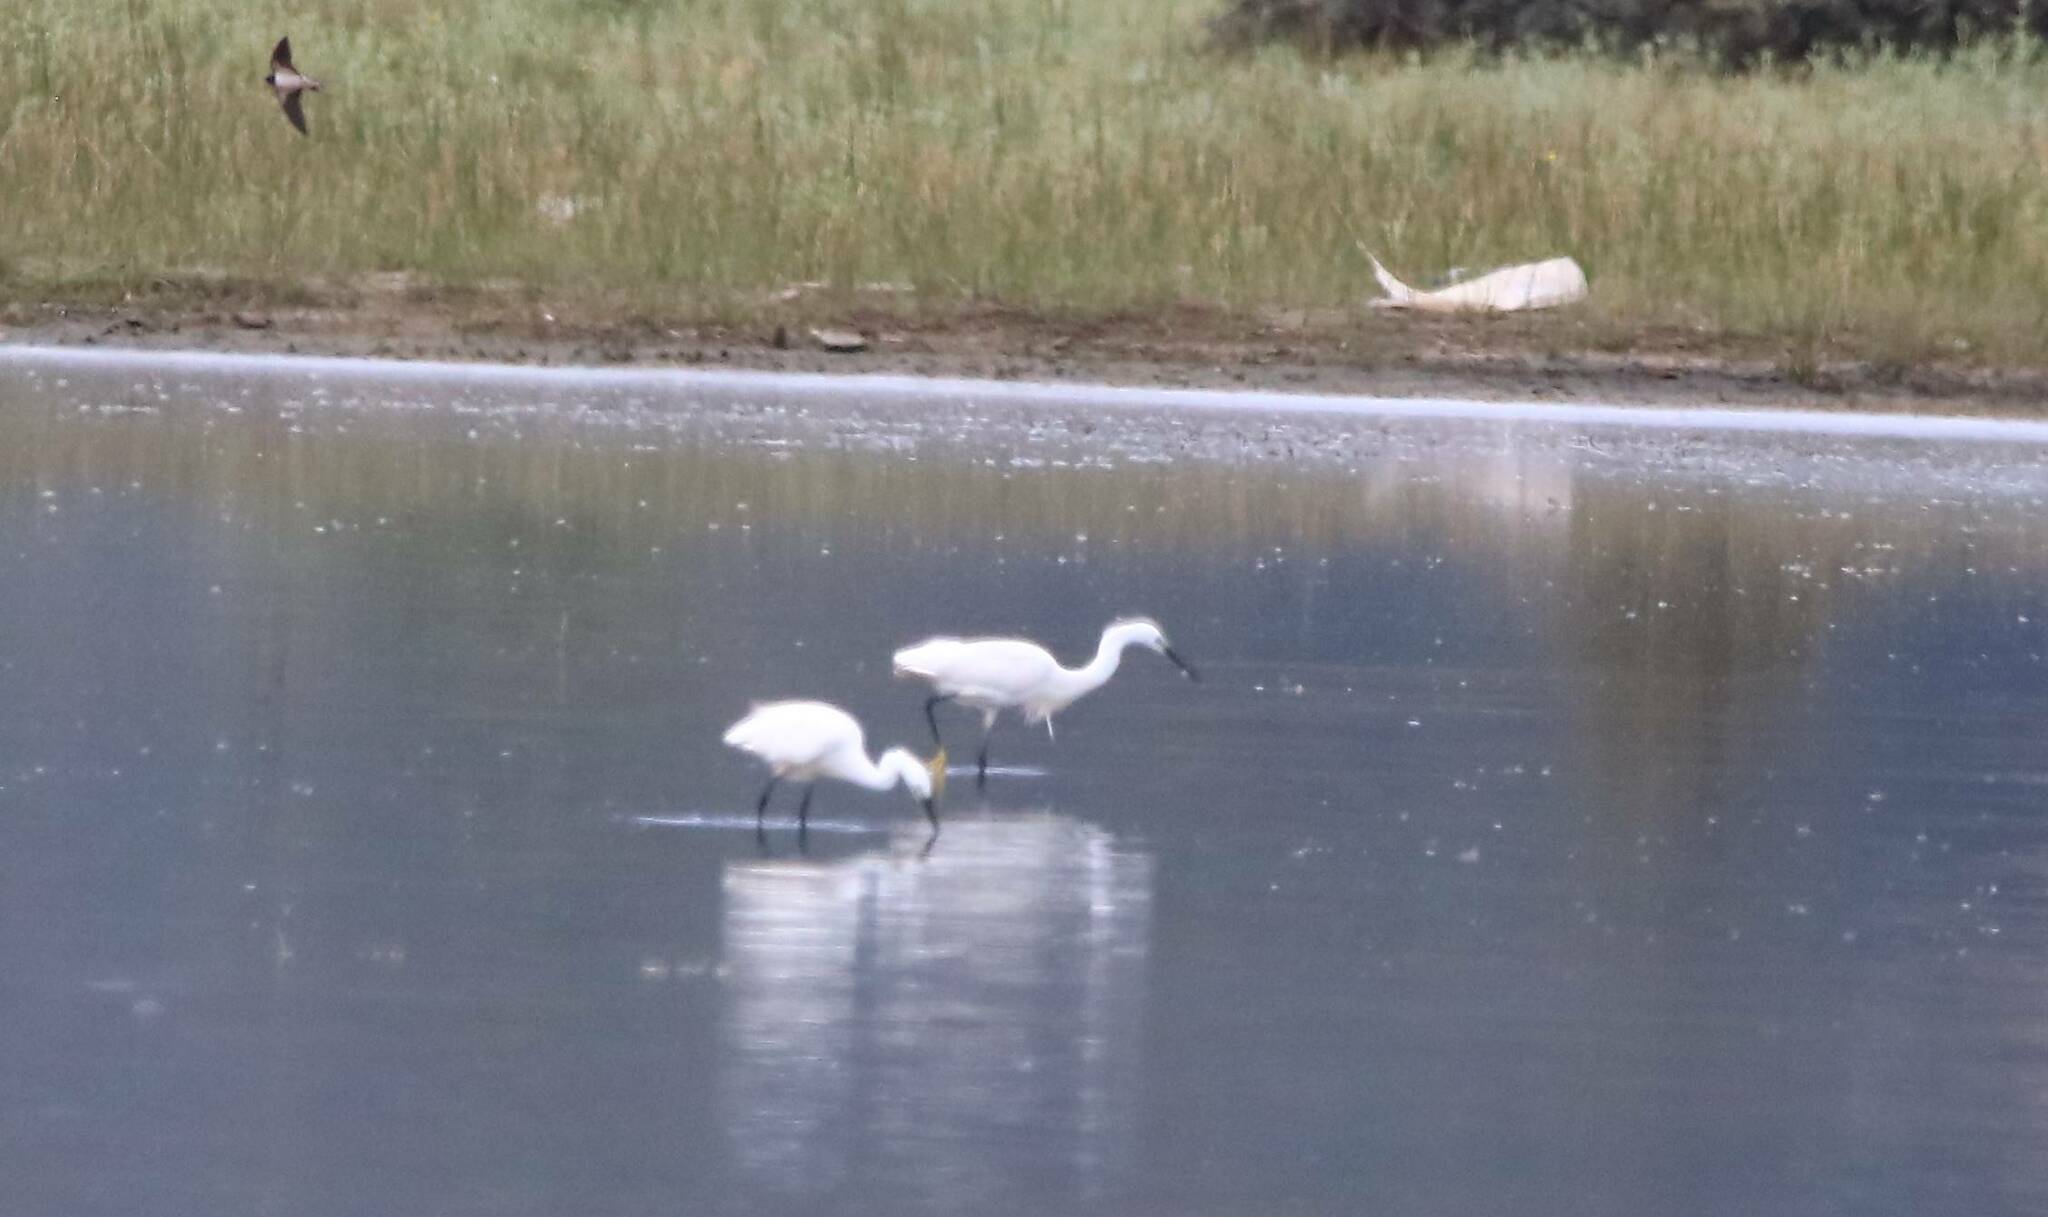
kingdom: Animalia
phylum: Chordata
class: Aves
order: Pelecaniformes
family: Ardeidae
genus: Egretta
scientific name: Egretta garzetta
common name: Little egret
